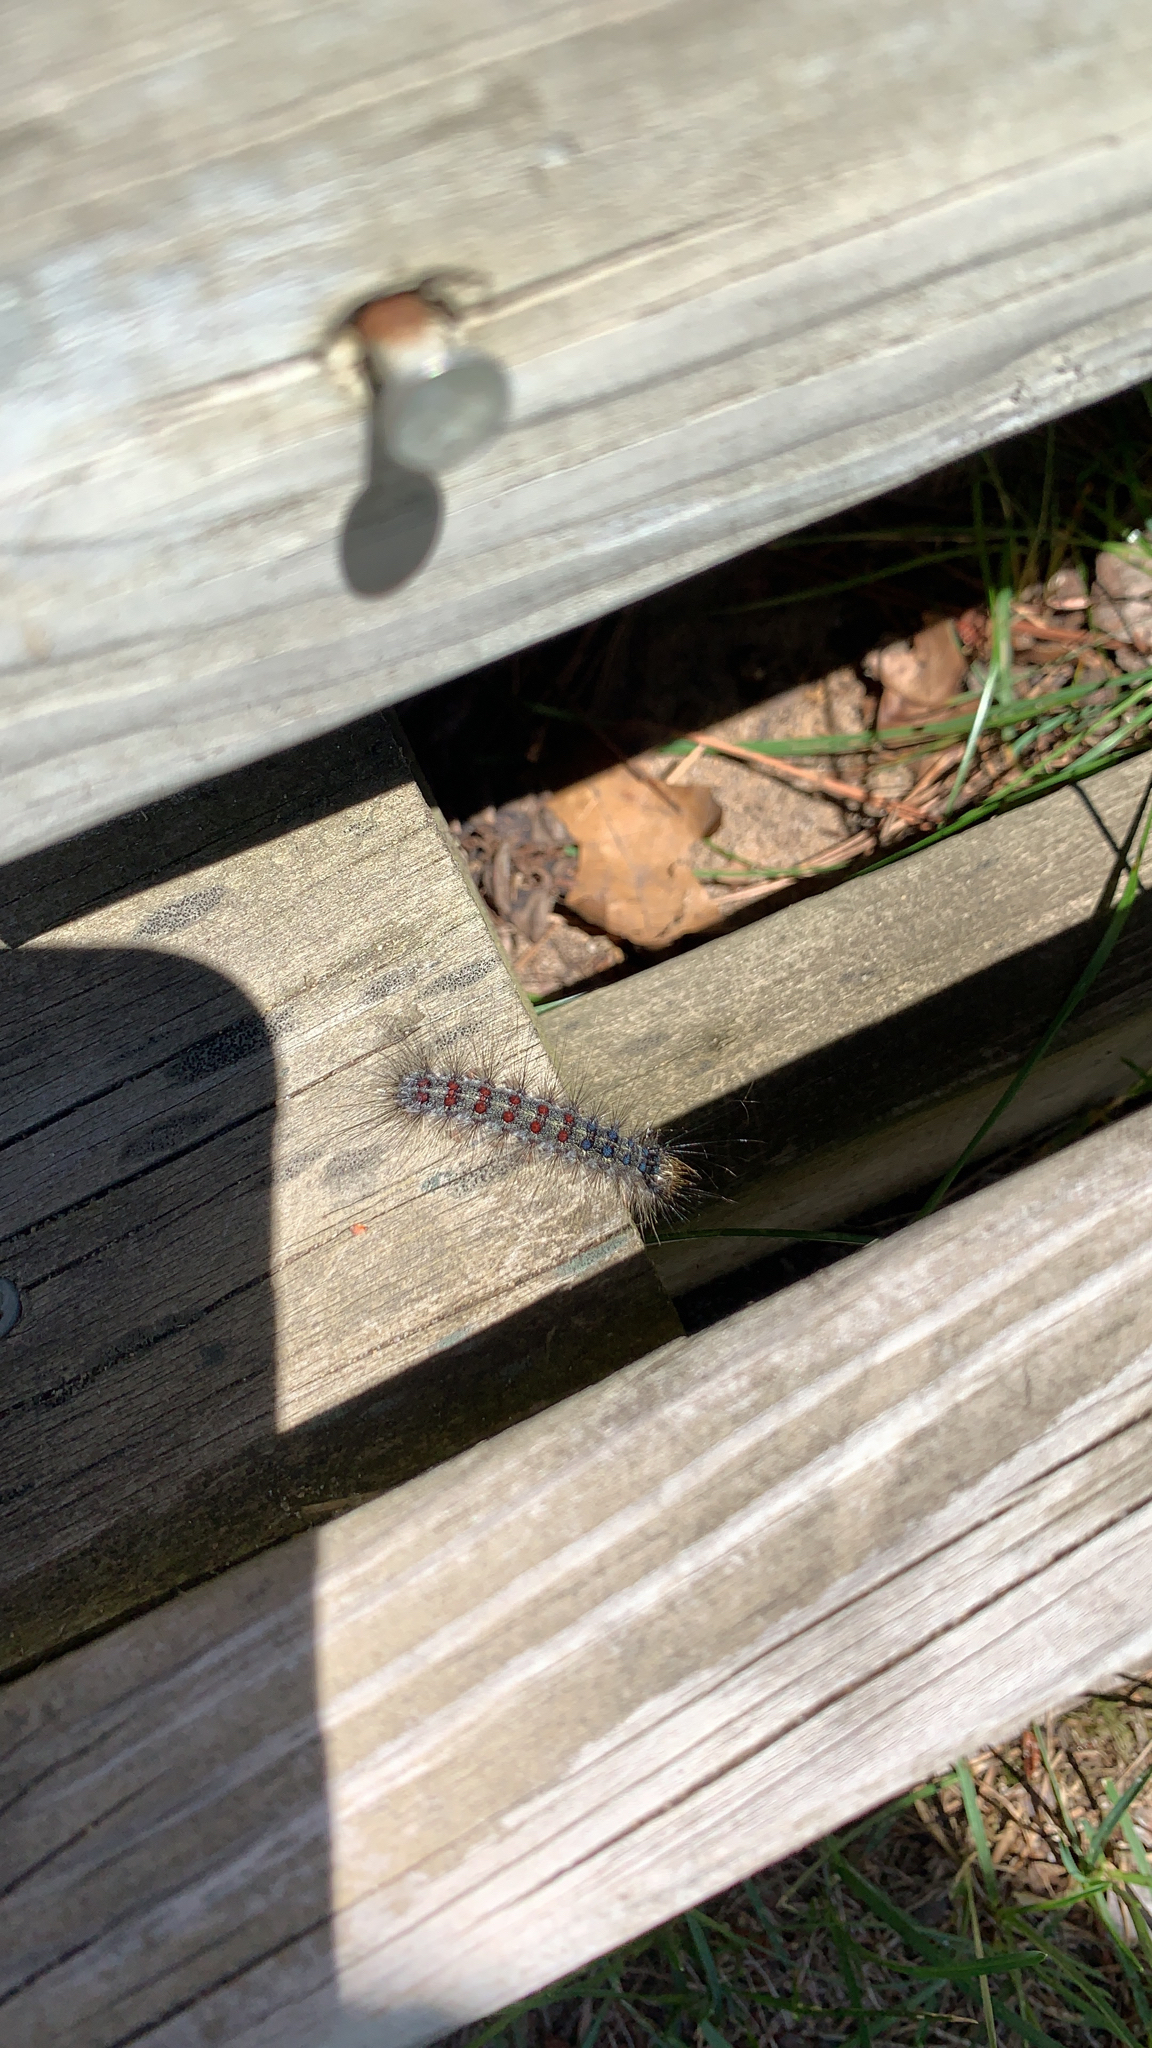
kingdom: Animalia
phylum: Arthropoda
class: Insecta
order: Lepidoptera
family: Erebidae
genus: Lymantria
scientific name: Lymantria dispar
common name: Gypsy moth
